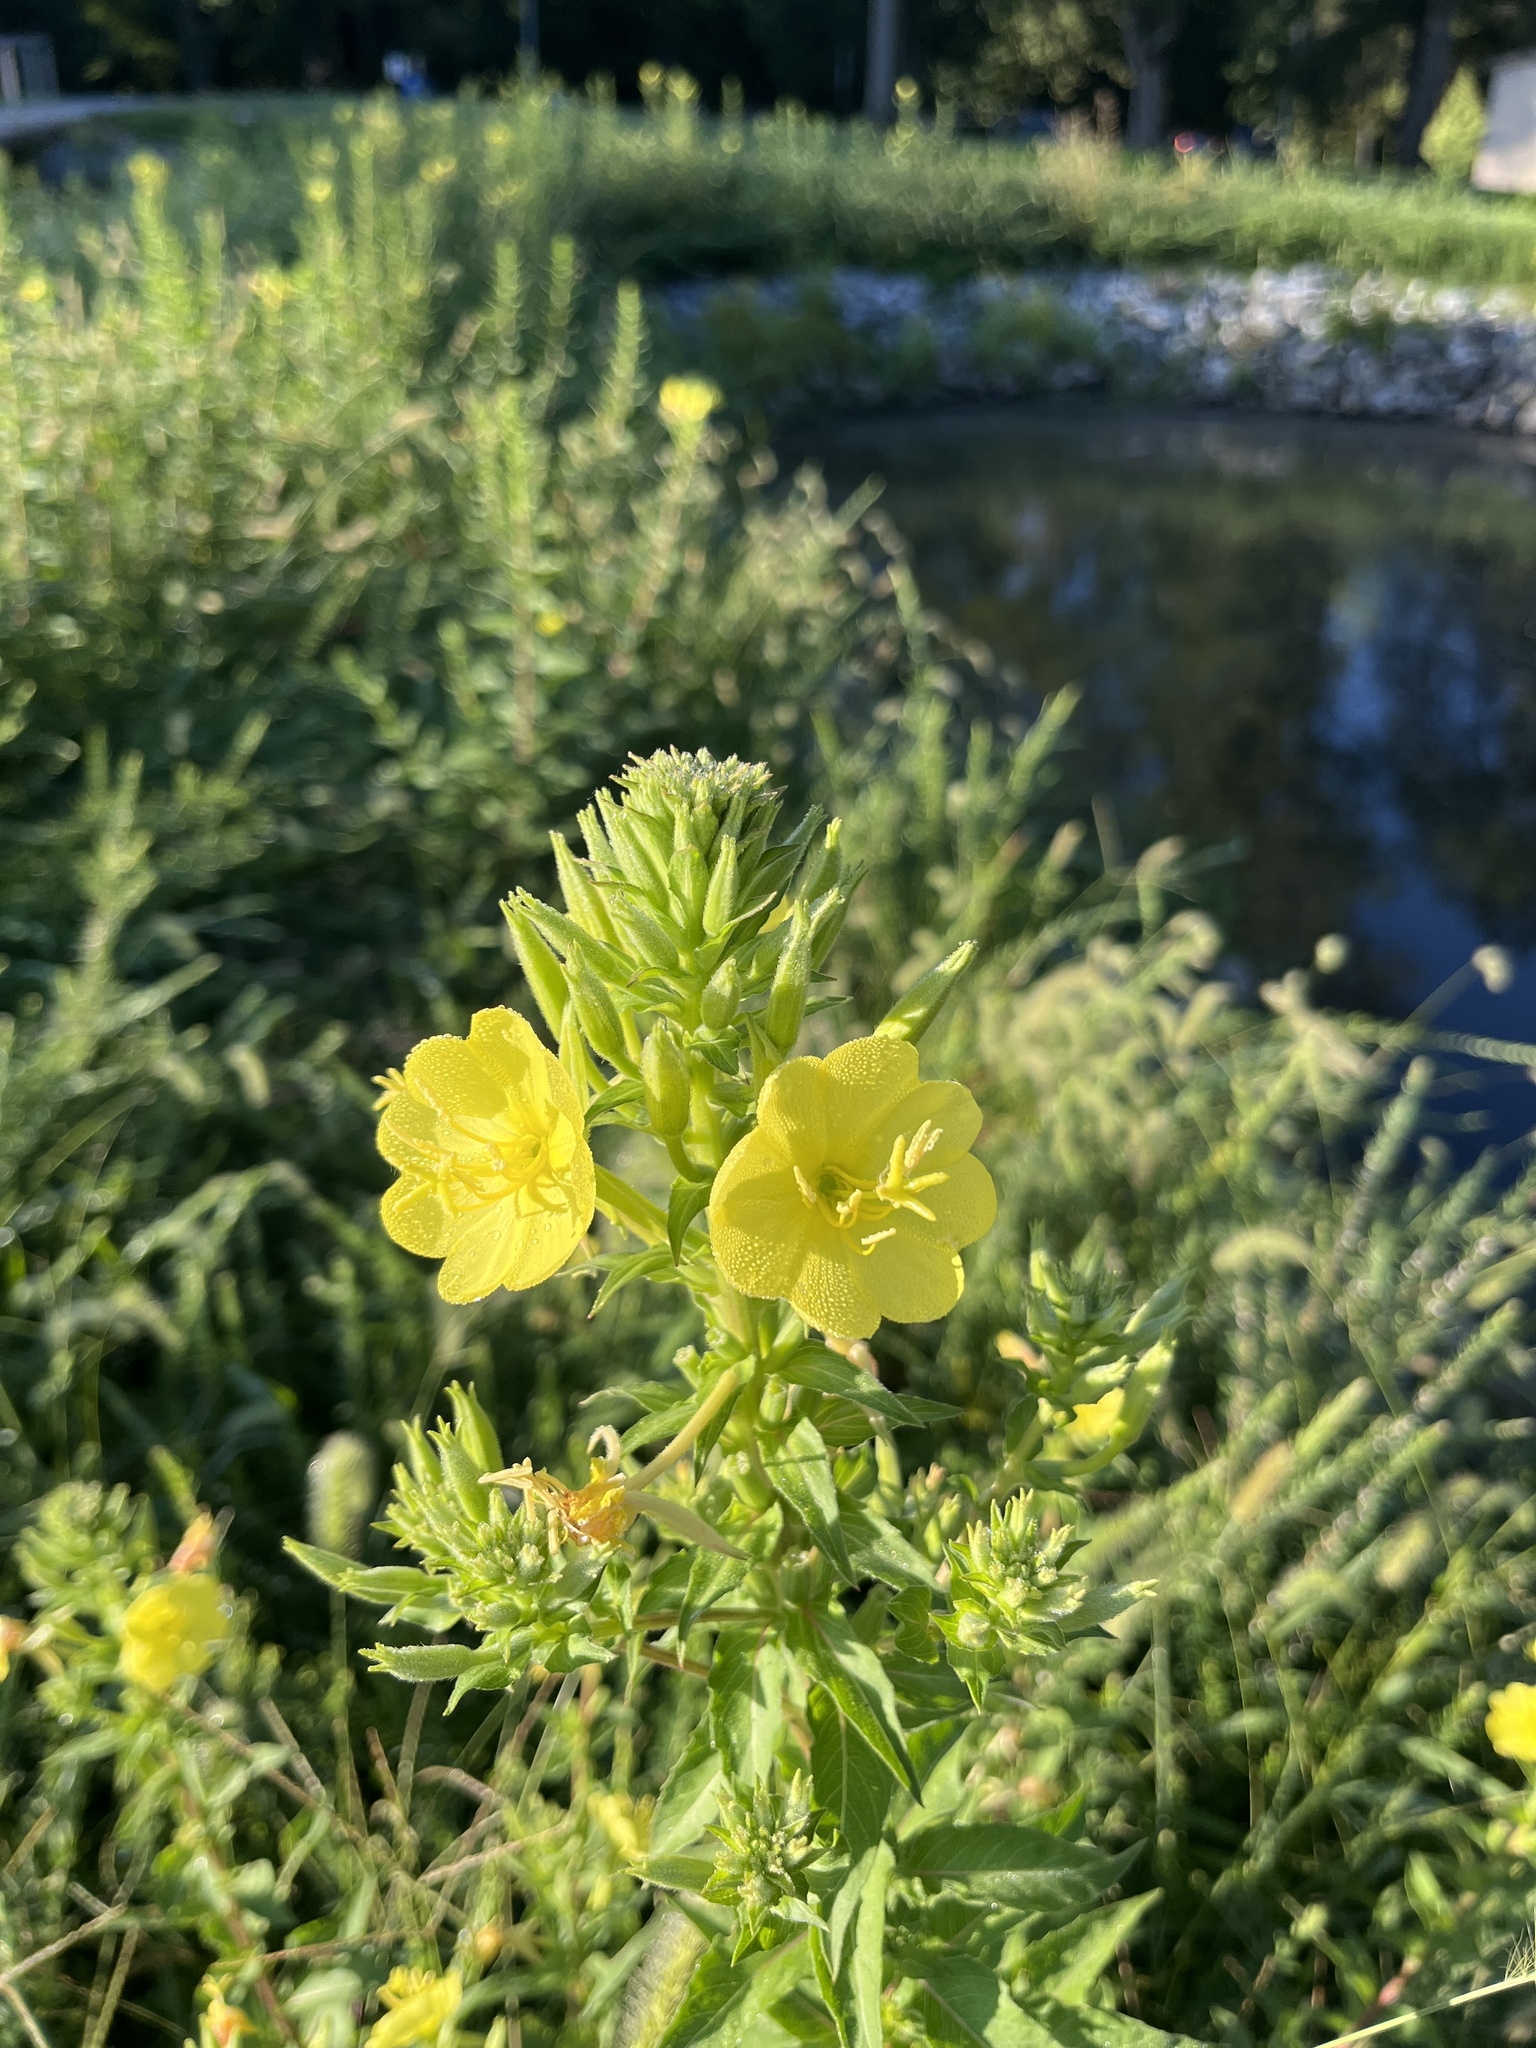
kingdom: Plantae
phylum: Tracheophyta
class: Magnoliopsida
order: Myrtales
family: Onagraceae
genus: Oenothera
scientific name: Oenothera biennis
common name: Common evening-primrose
